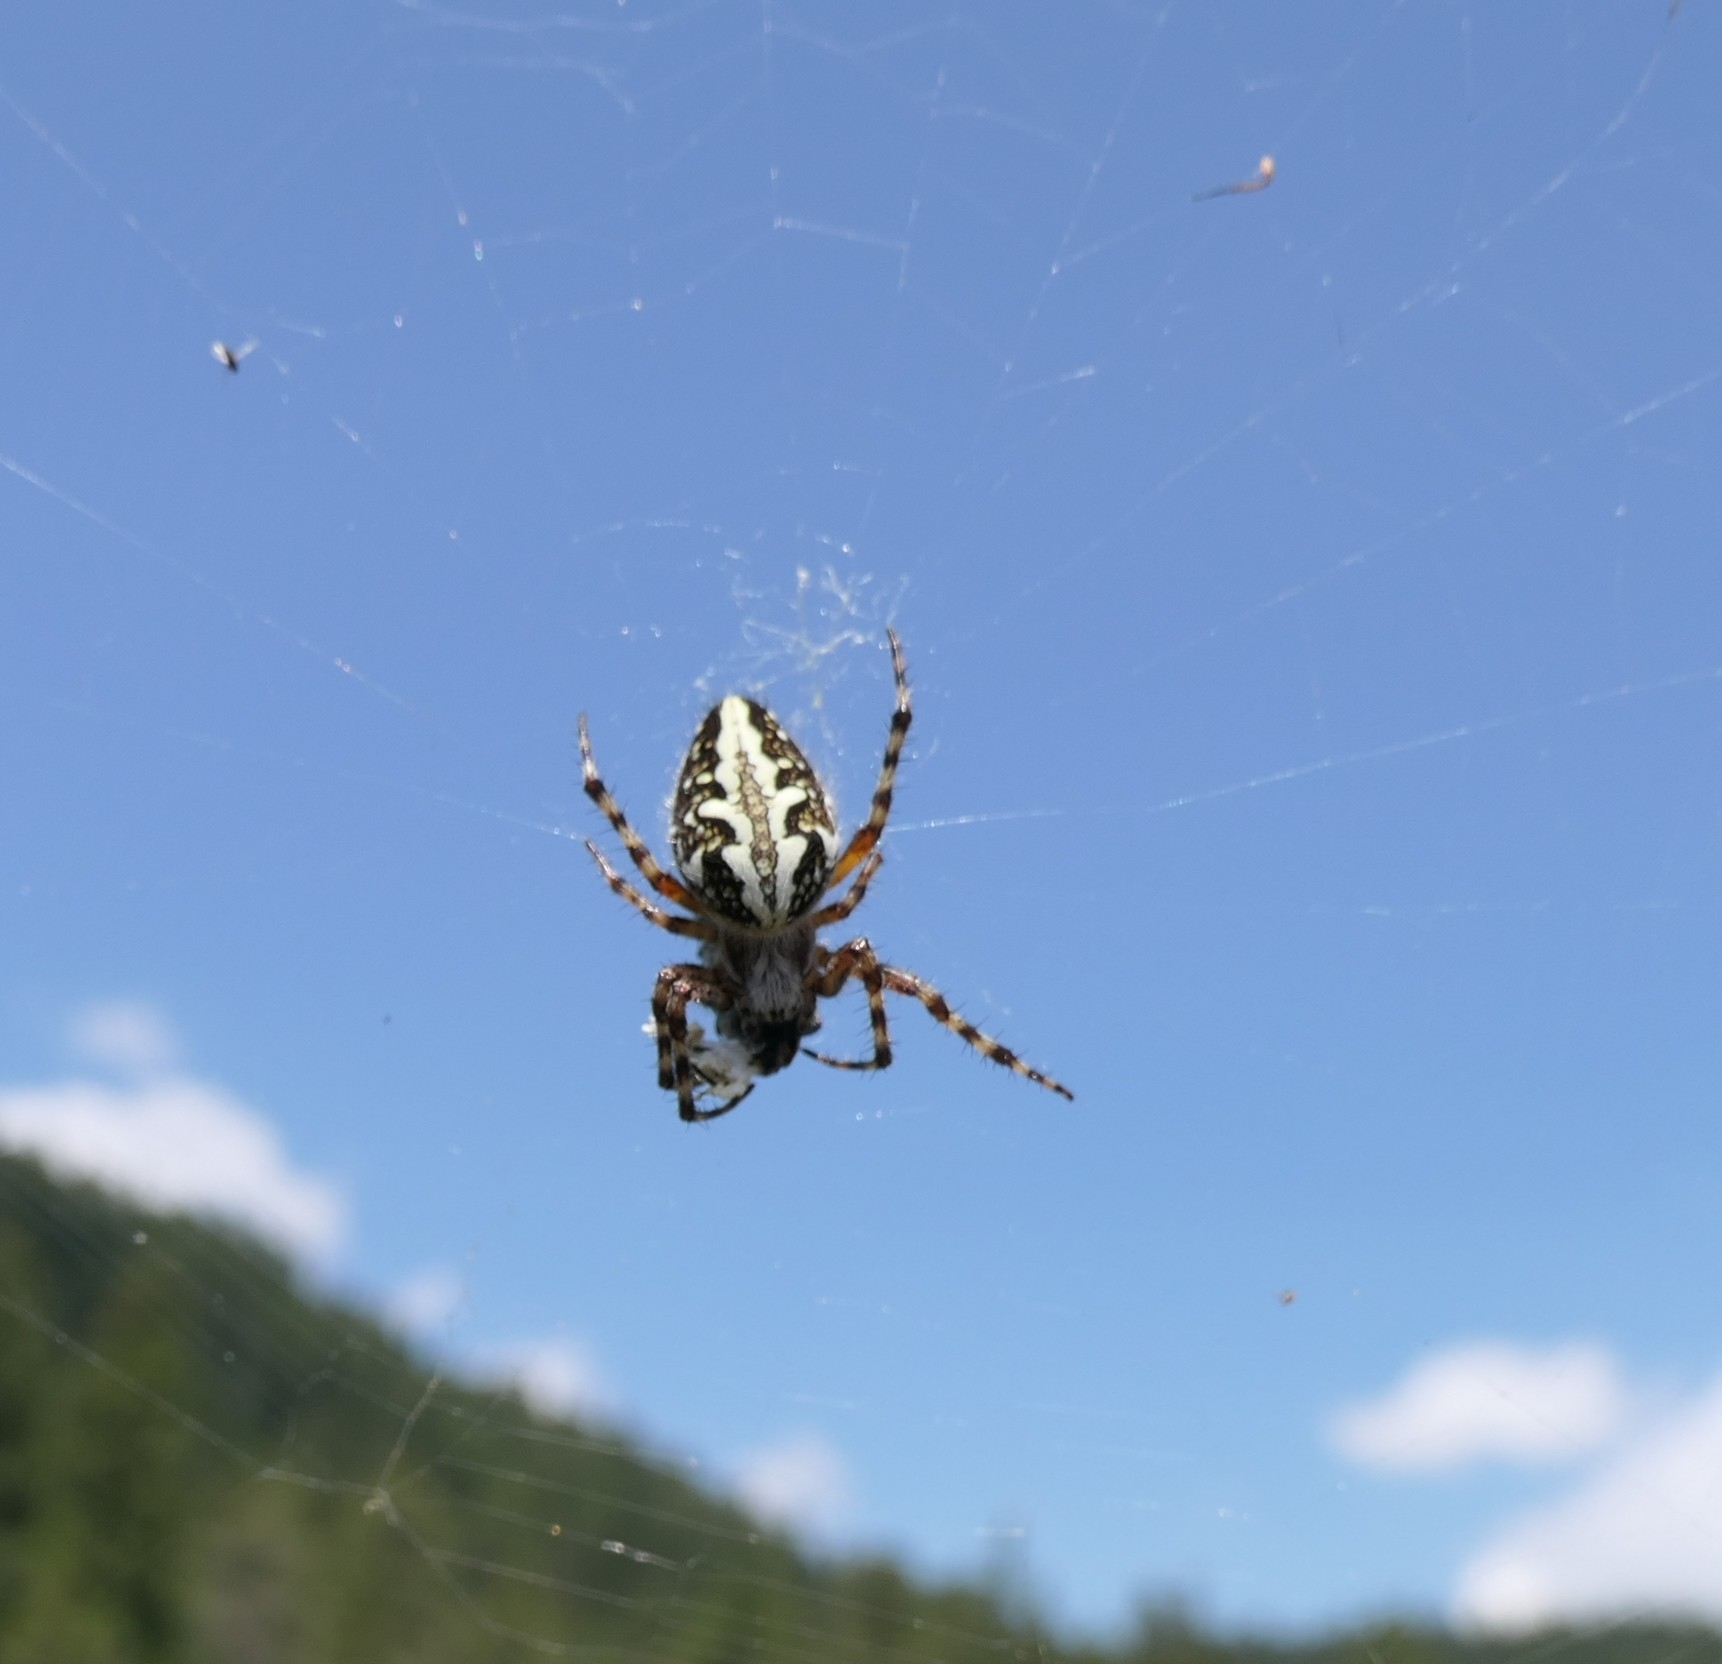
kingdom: Animalia
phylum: Arthropoda
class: Arachnida
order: Araneae
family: Araneidae
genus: Aculepeira
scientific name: Aculepeira ceropegia
